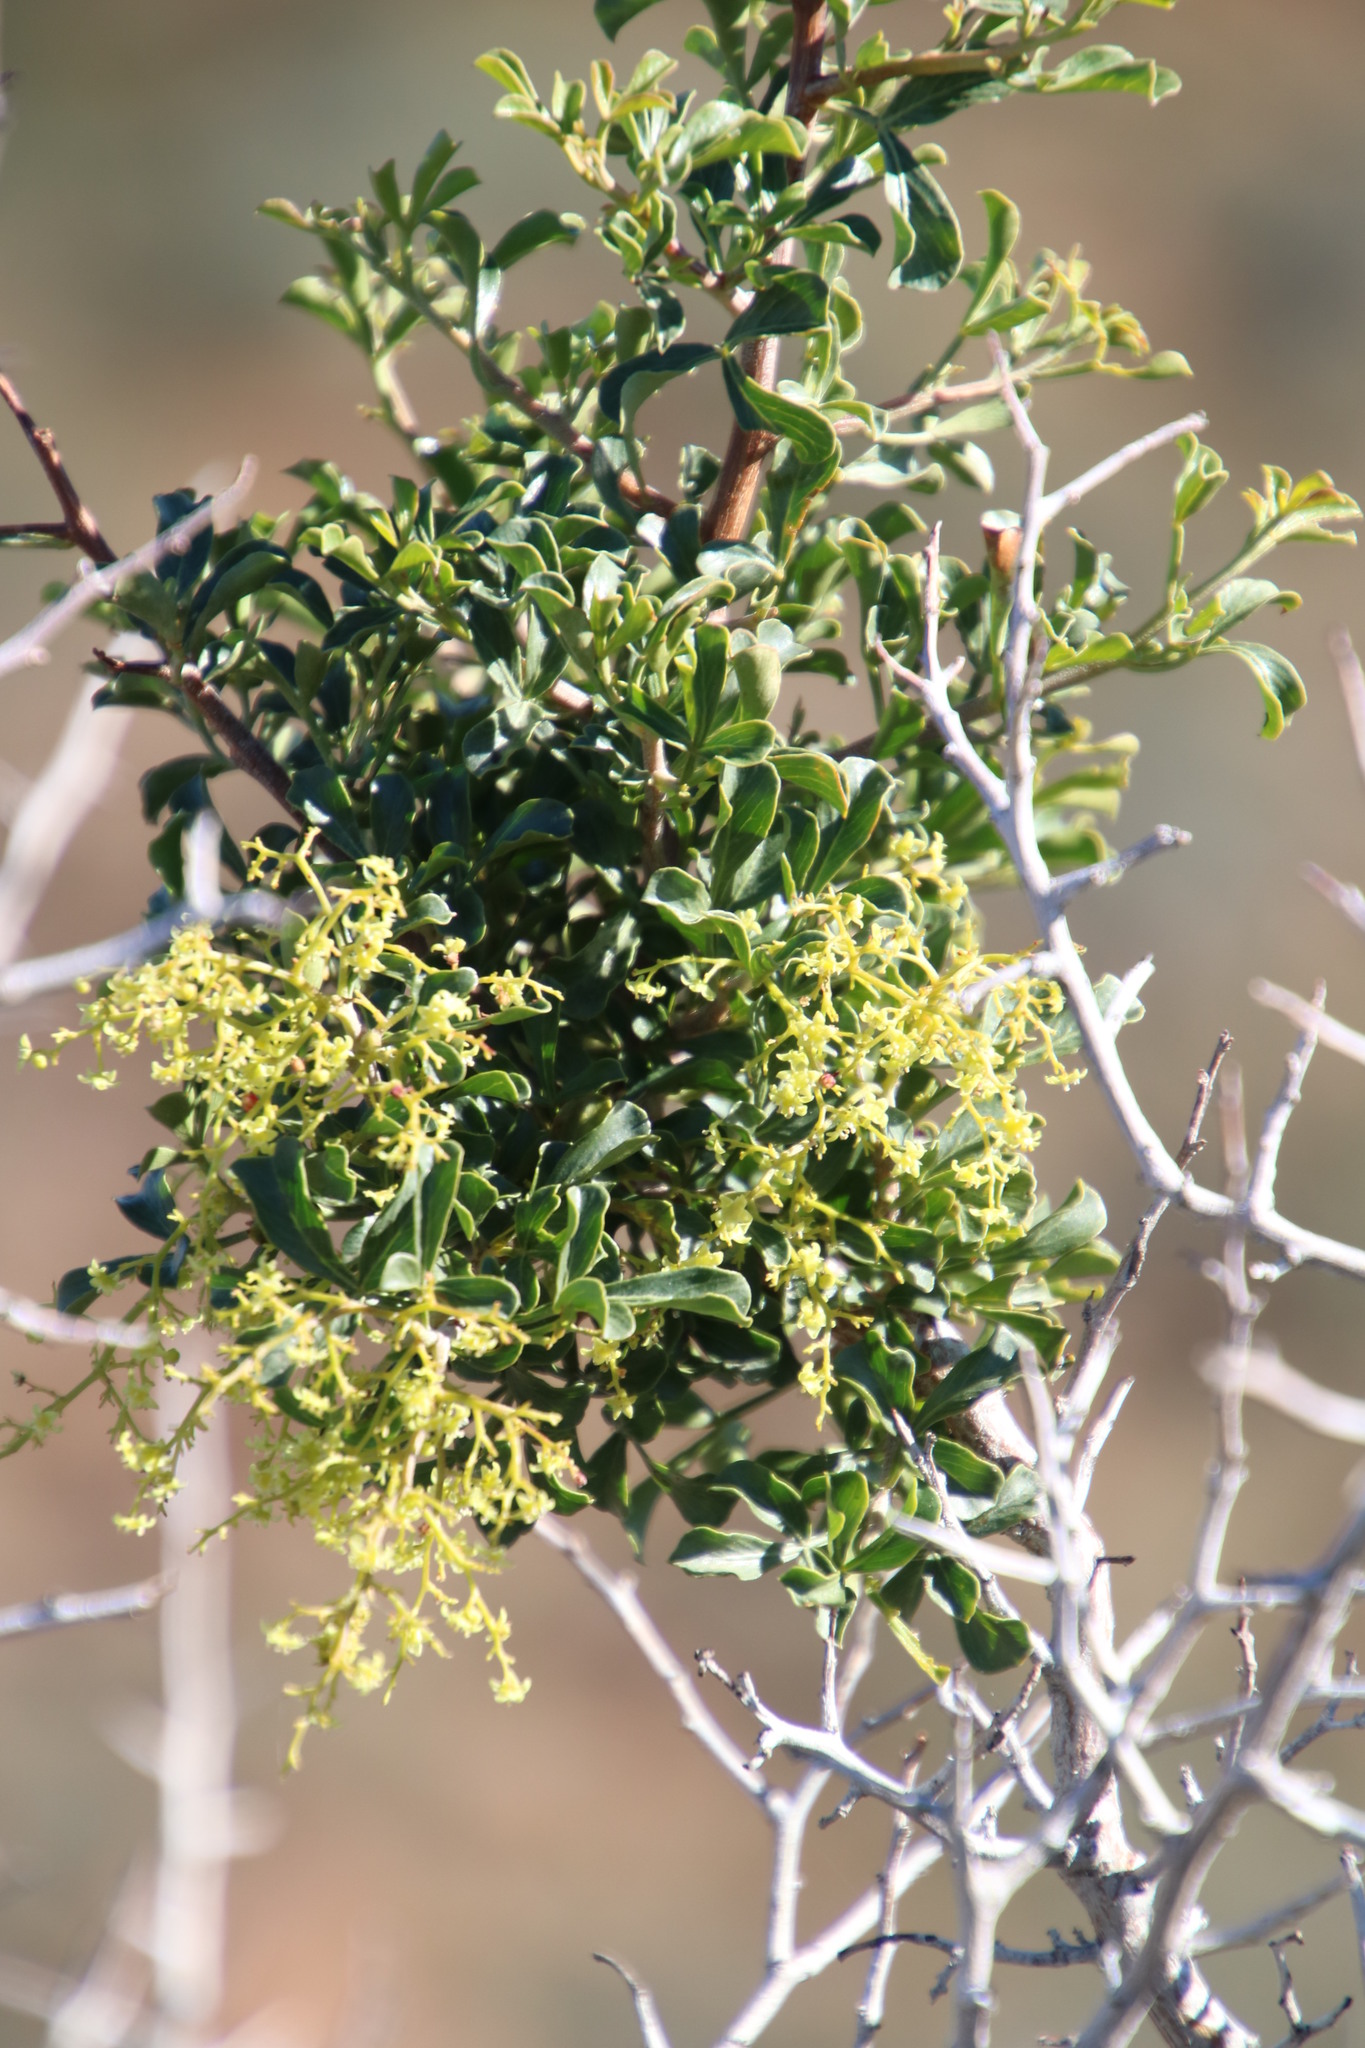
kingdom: Plantae
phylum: Tracheophyta
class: Magnoliopsida
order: Sapindales
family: Anacardiaceae
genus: Searsia
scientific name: Searsia burchellii
